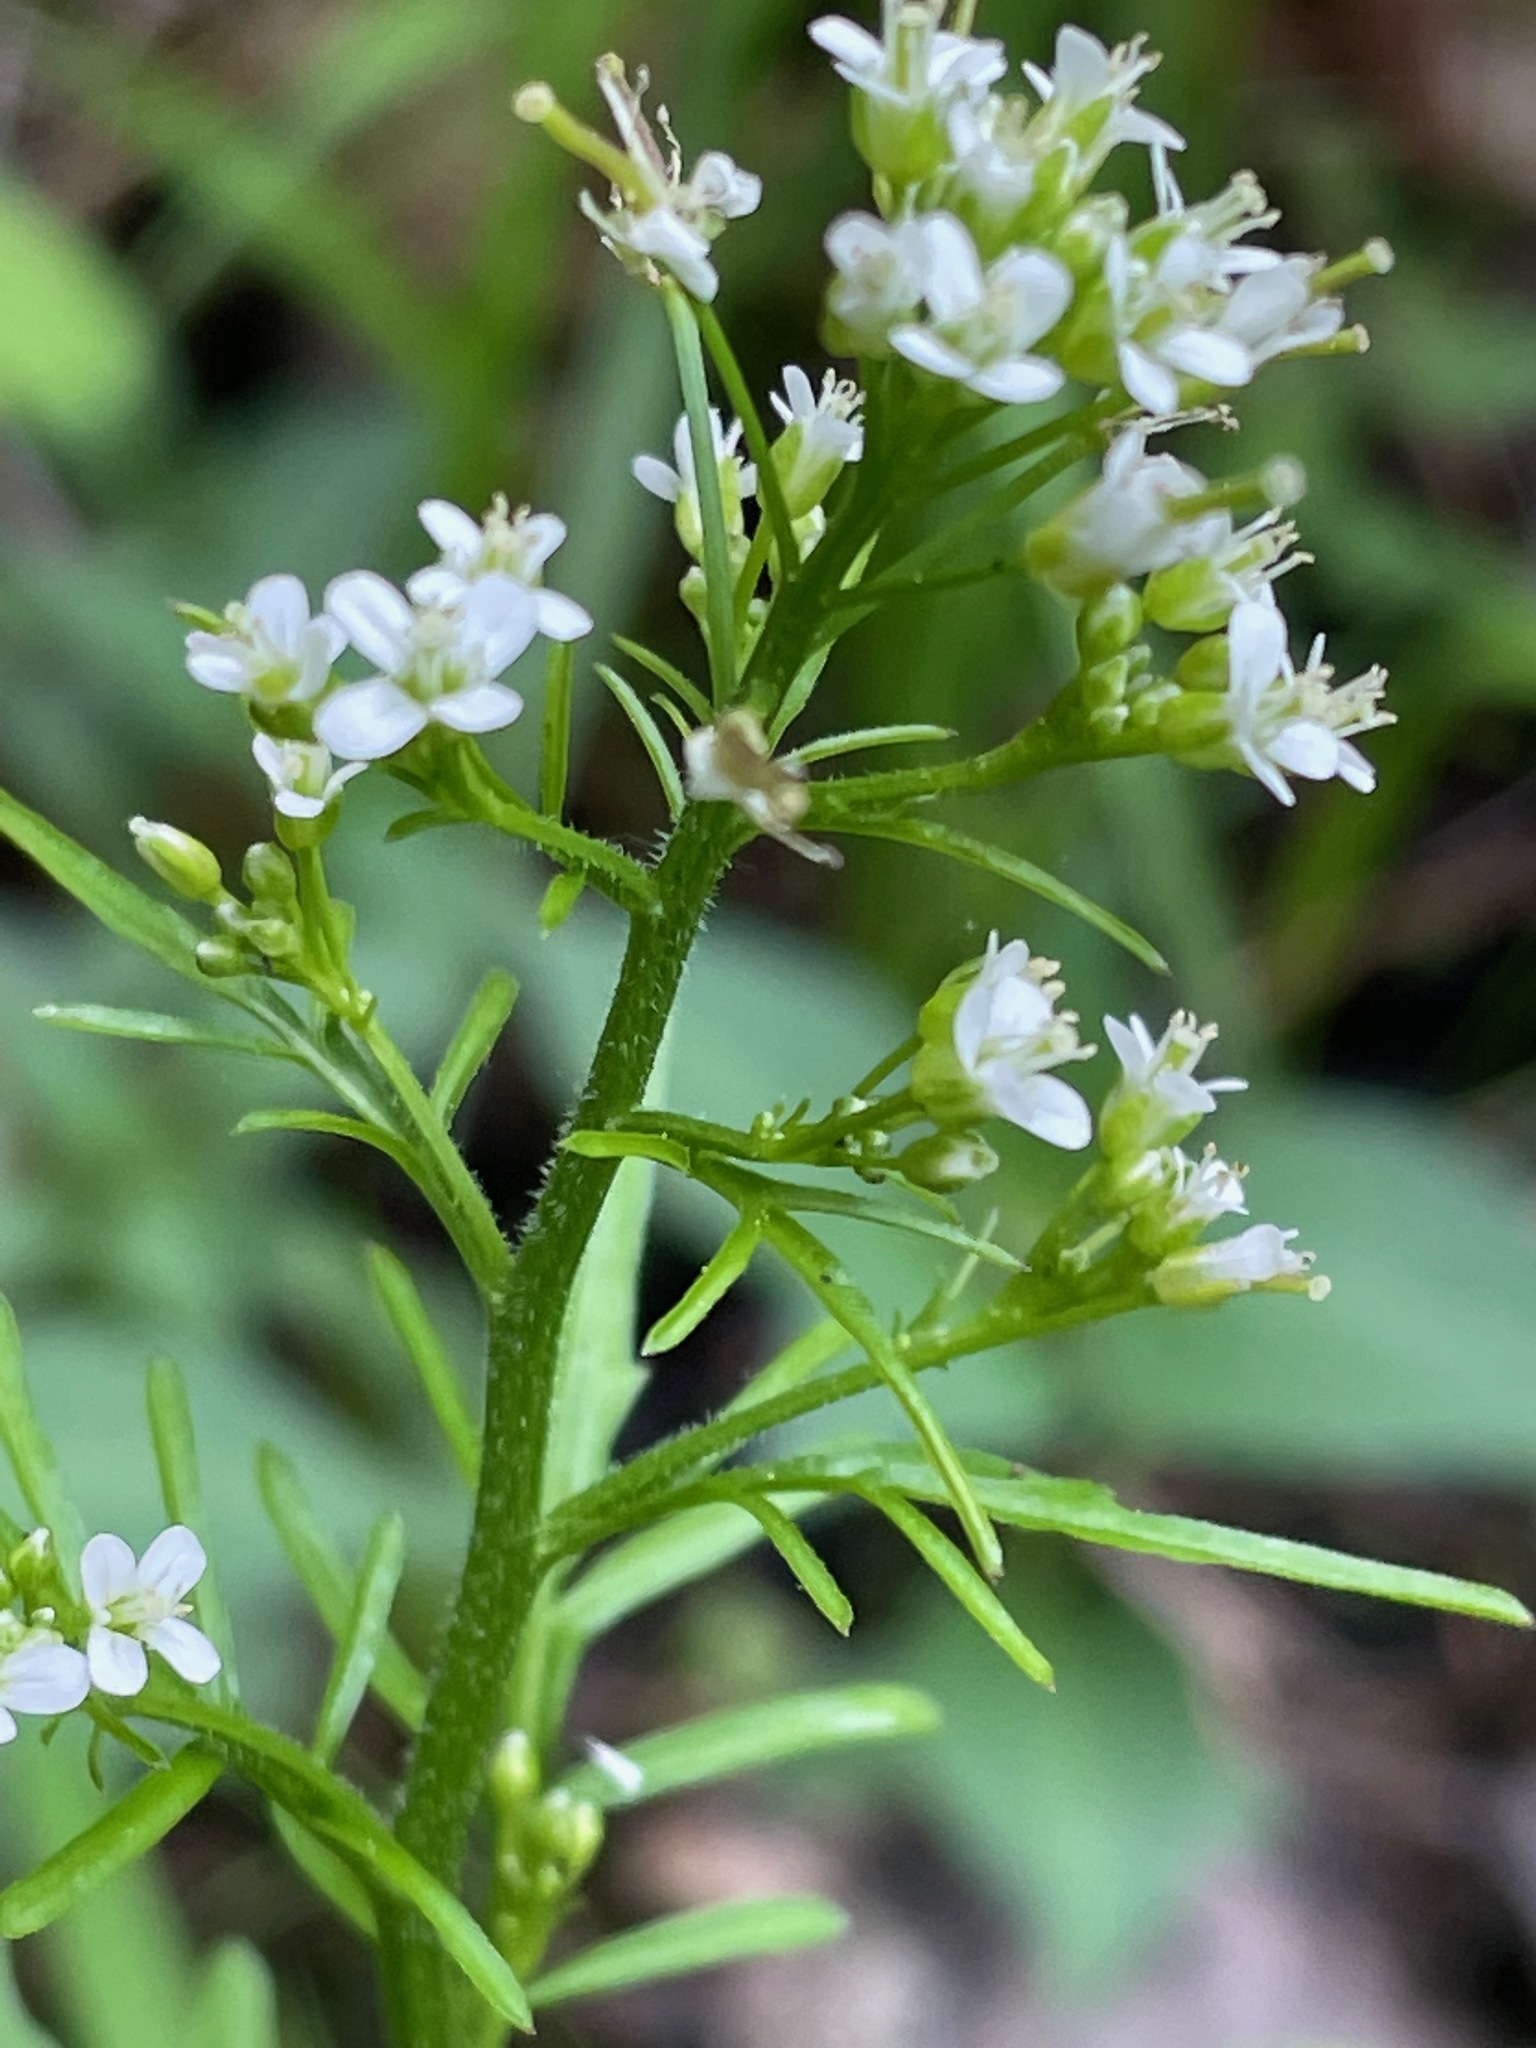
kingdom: Plantae
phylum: Tracheophyta
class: Magnoliopsida
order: Brassicales
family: Brassicaceae
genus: Cardamine
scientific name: Cardamine pensylvanica
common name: Pennsylvania bittercress
